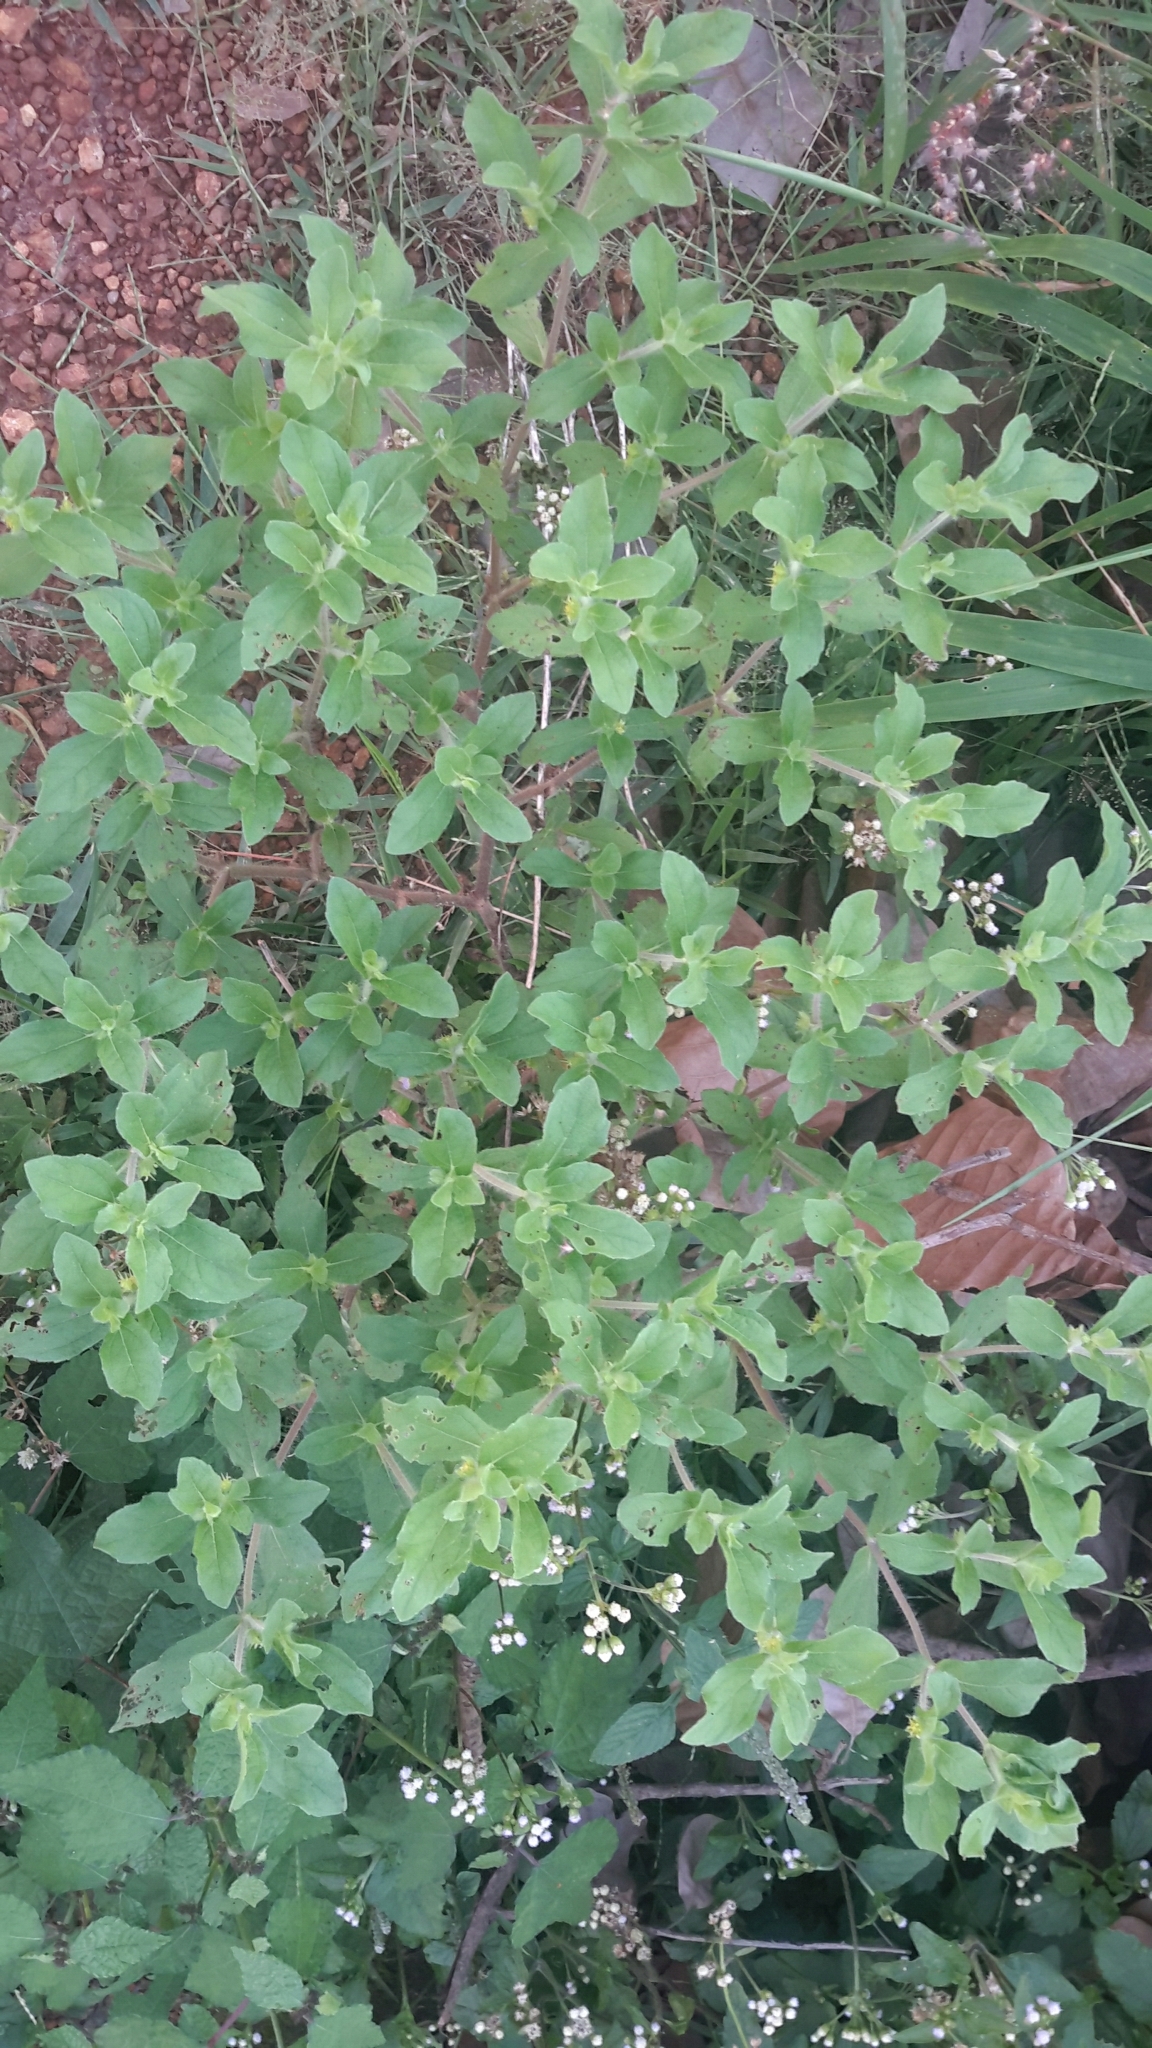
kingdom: Plantae
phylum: Tracheophyta
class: Magnoliopsida
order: Asterales
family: Asteraceae
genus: Acanthospermum
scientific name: Acanthospermum hispidum
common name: Hispid starbur
